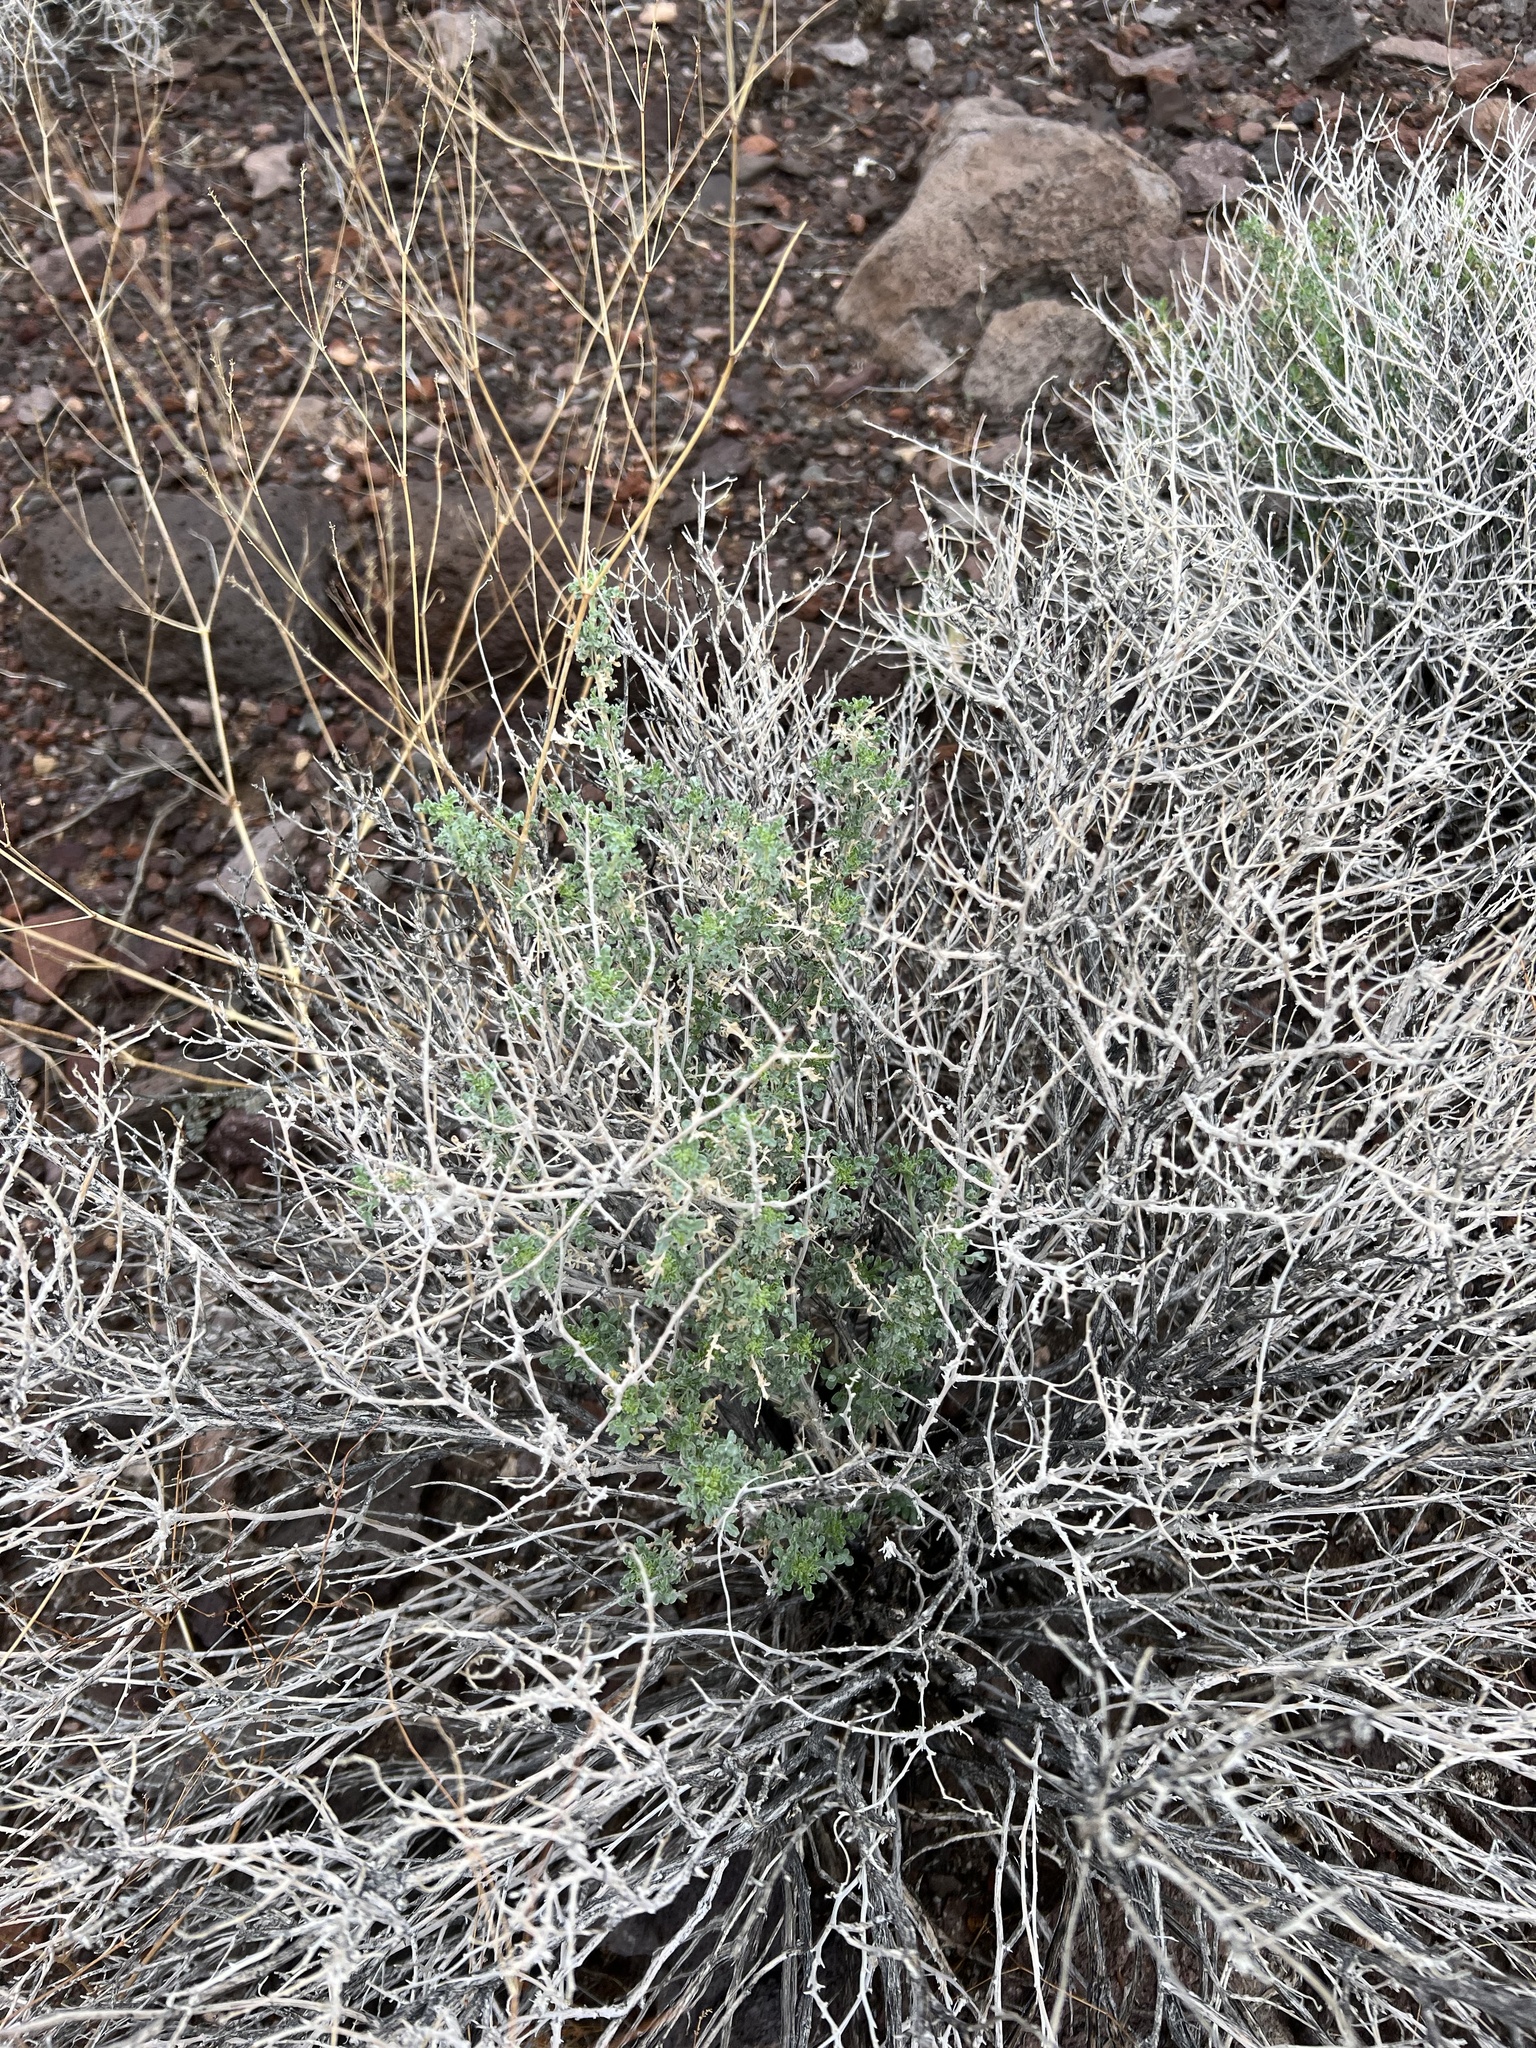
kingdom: Plantae
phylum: Tracheophyta
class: Magnoliopsida
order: Asterales
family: Asteraceae
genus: Ambrosia
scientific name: Ambrosia dumosa
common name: Bur-sage
